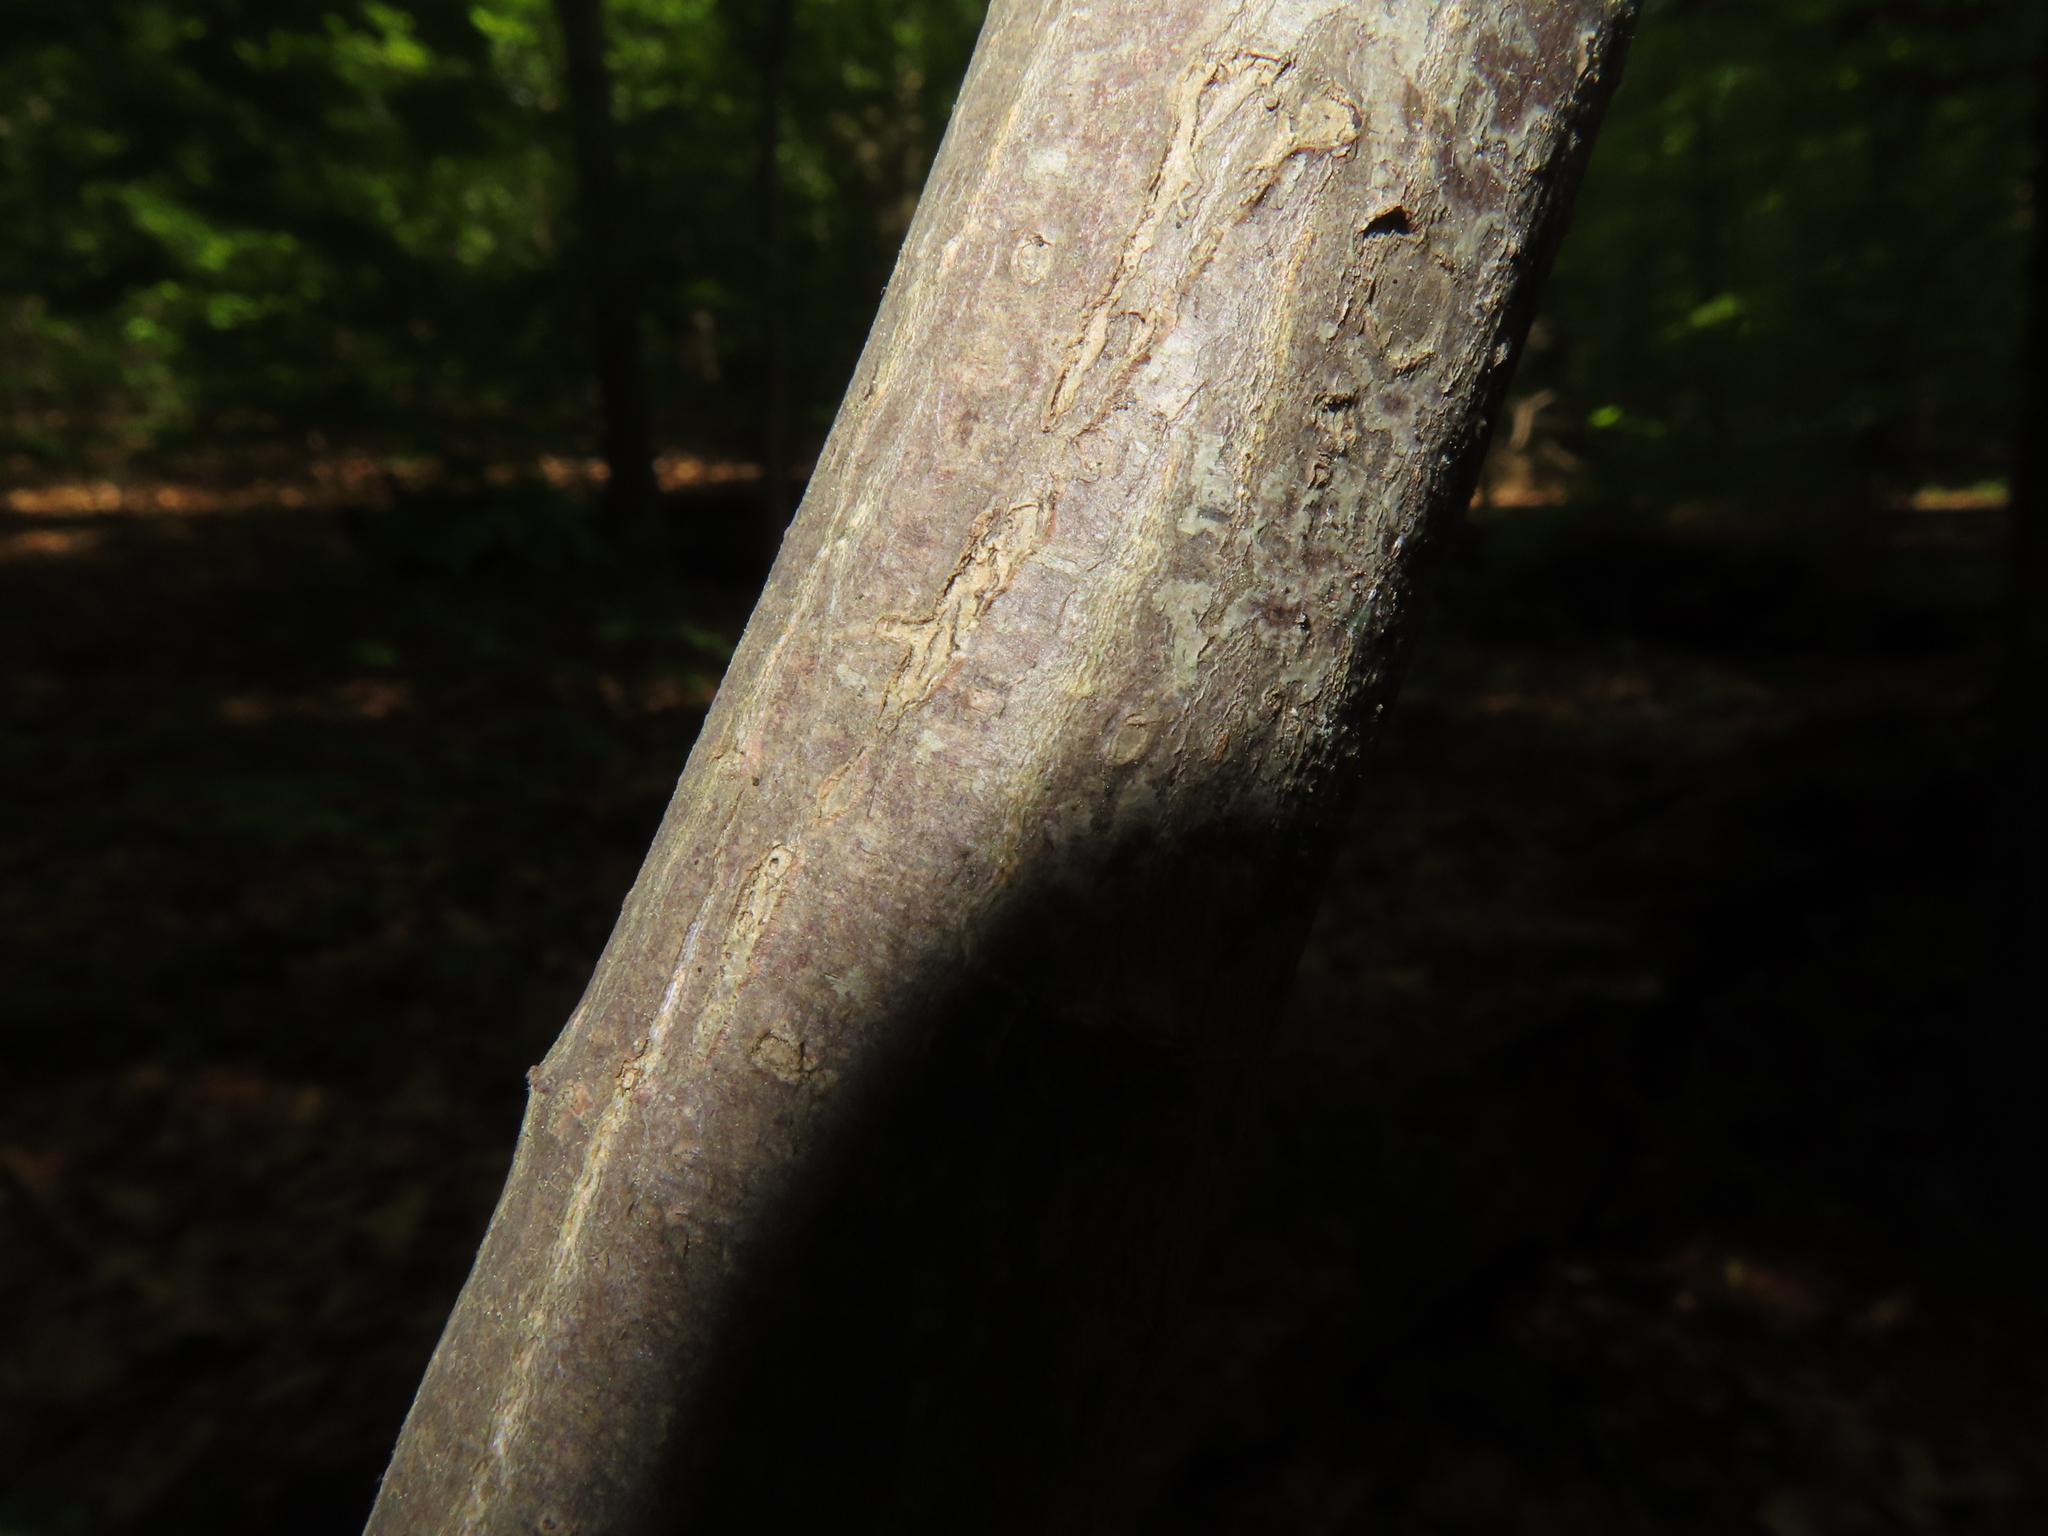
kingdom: Plantae
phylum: Tracheophyta
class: Magnoliopsida
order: Sapindales
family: Sapindaceae
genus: Acer
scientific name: Acer palmatum
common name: Japanese maple
